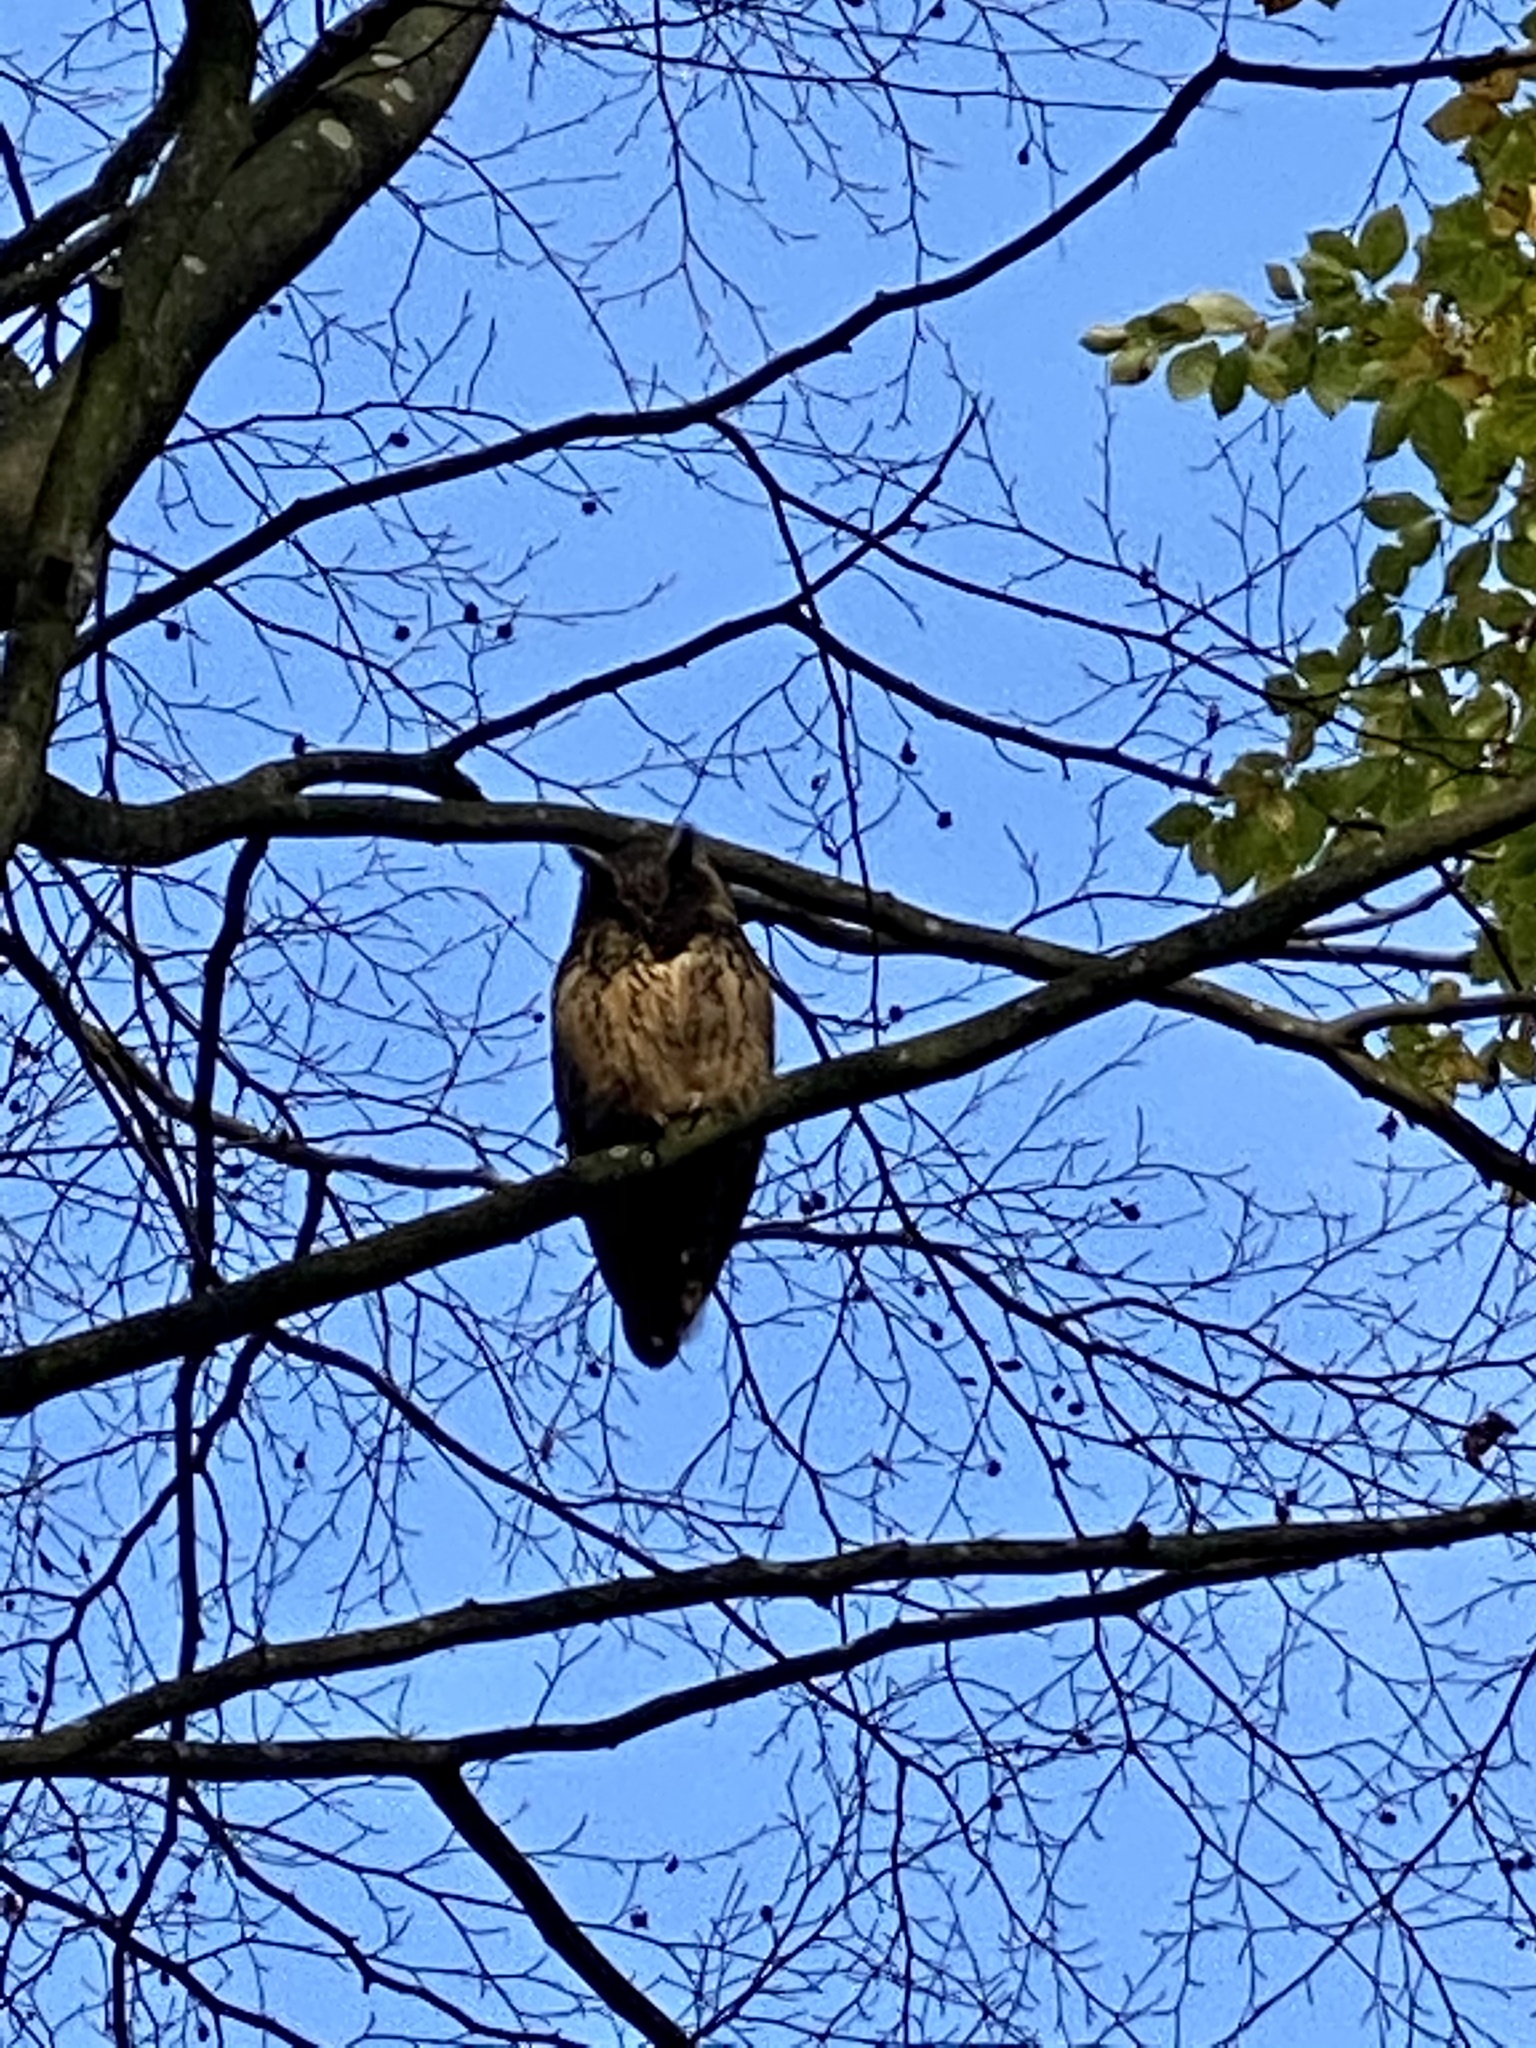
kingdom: Animalia
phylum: Chordata
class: Aves
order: Strigiformes
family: Strigidae
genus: Bubo
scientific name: Bubo bubo
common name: Eurasian eagle-owl
